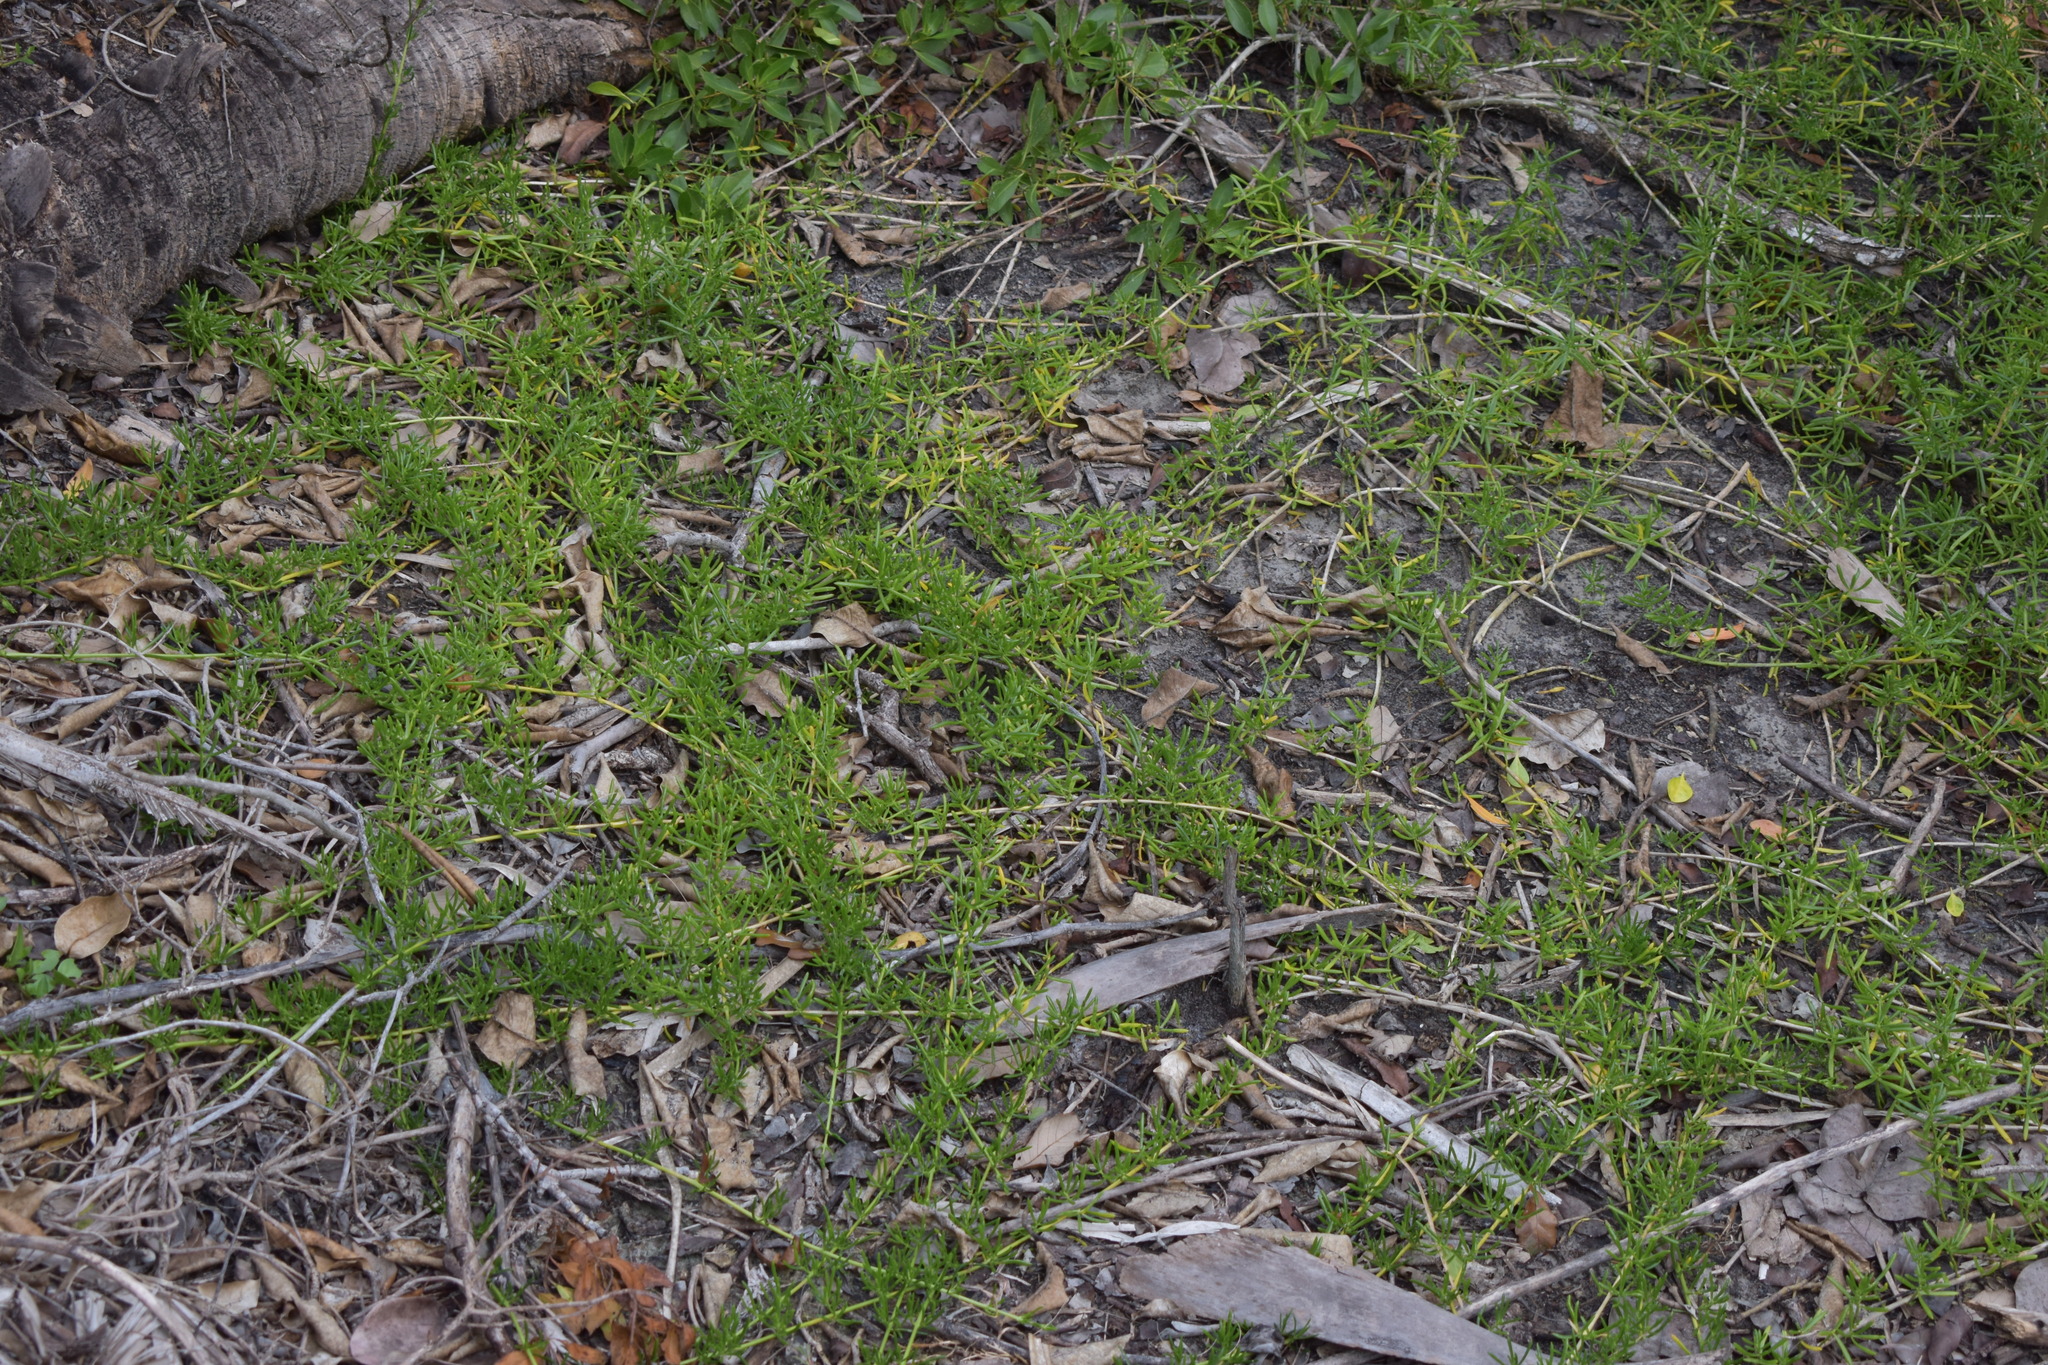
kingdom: Plantae
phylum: Tracheophyta
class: Magnoliopsida
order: Brassicales
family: Bataceae
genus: Batis
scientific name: Batis maritima
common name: Turtleweed
